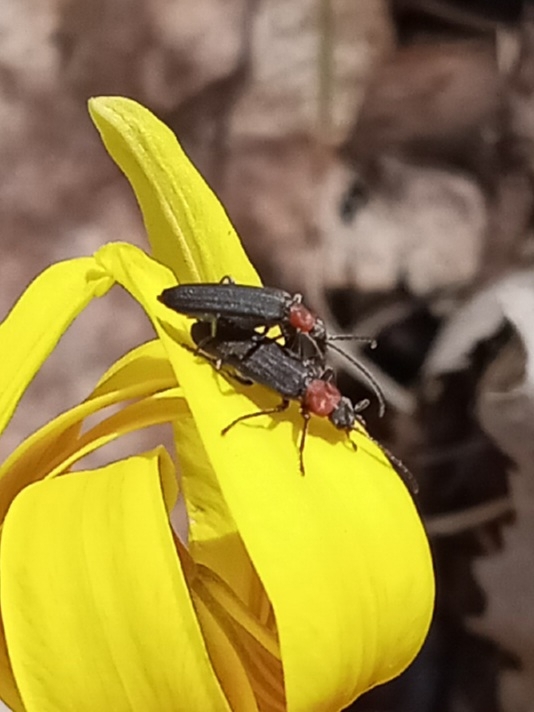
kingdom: Animalia
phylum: Arthropoda
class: Insecta
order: Coleoptera
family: Oedemeridae
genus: Ischnomera
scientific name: Ischnomera
